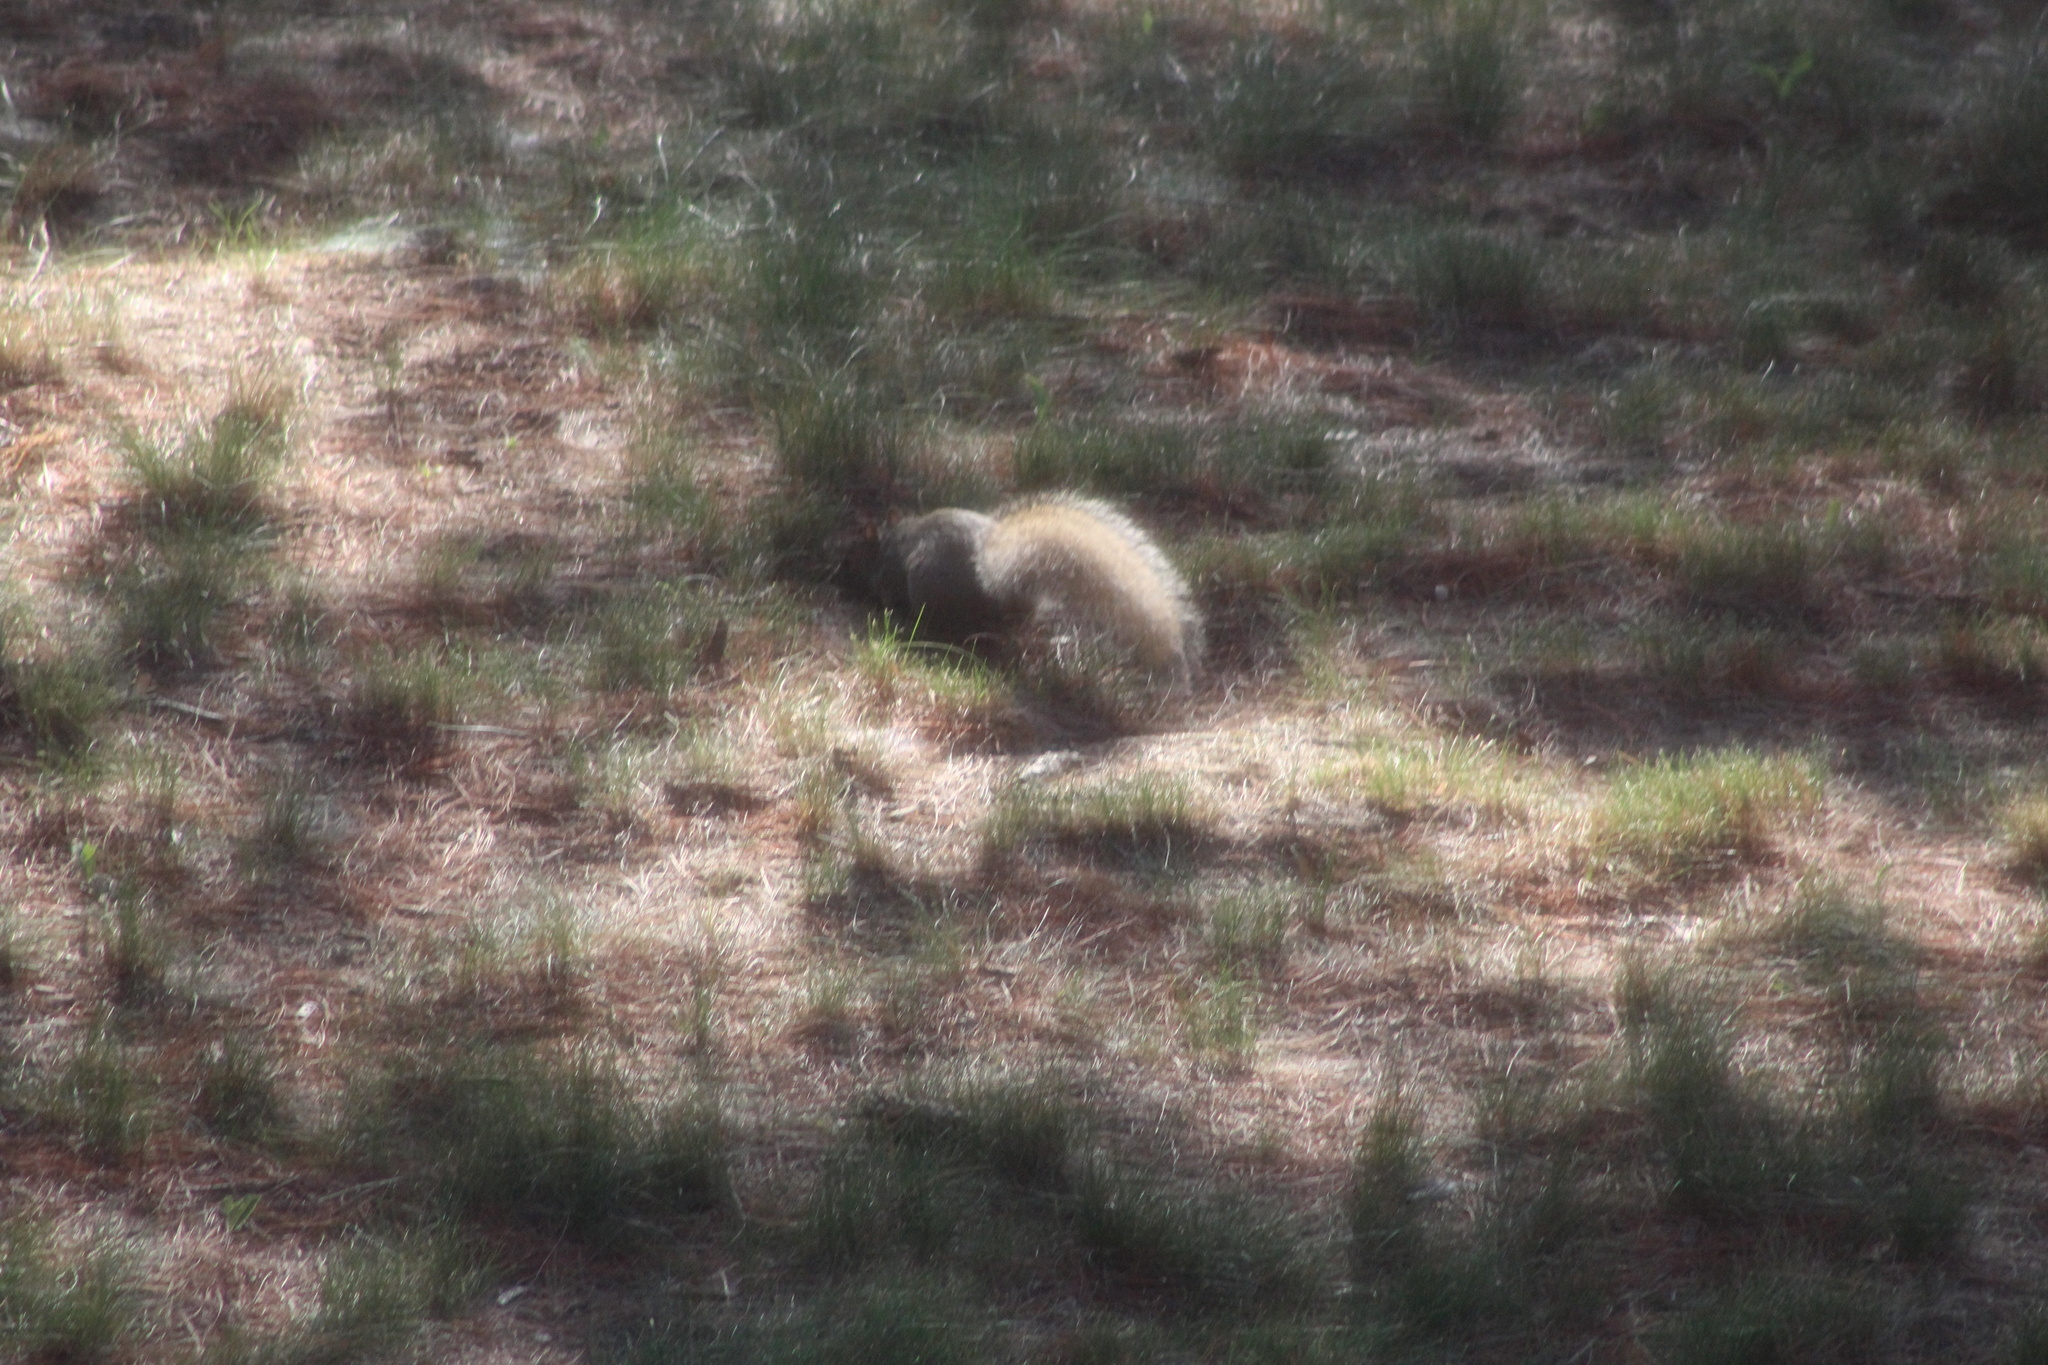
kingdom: Animalia
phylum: Chordata
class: Mammalia
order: Rodentia
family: Sciuridae
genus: Sciurus
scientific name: Sciurus carolinensis
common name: Eastern gray squirrel
